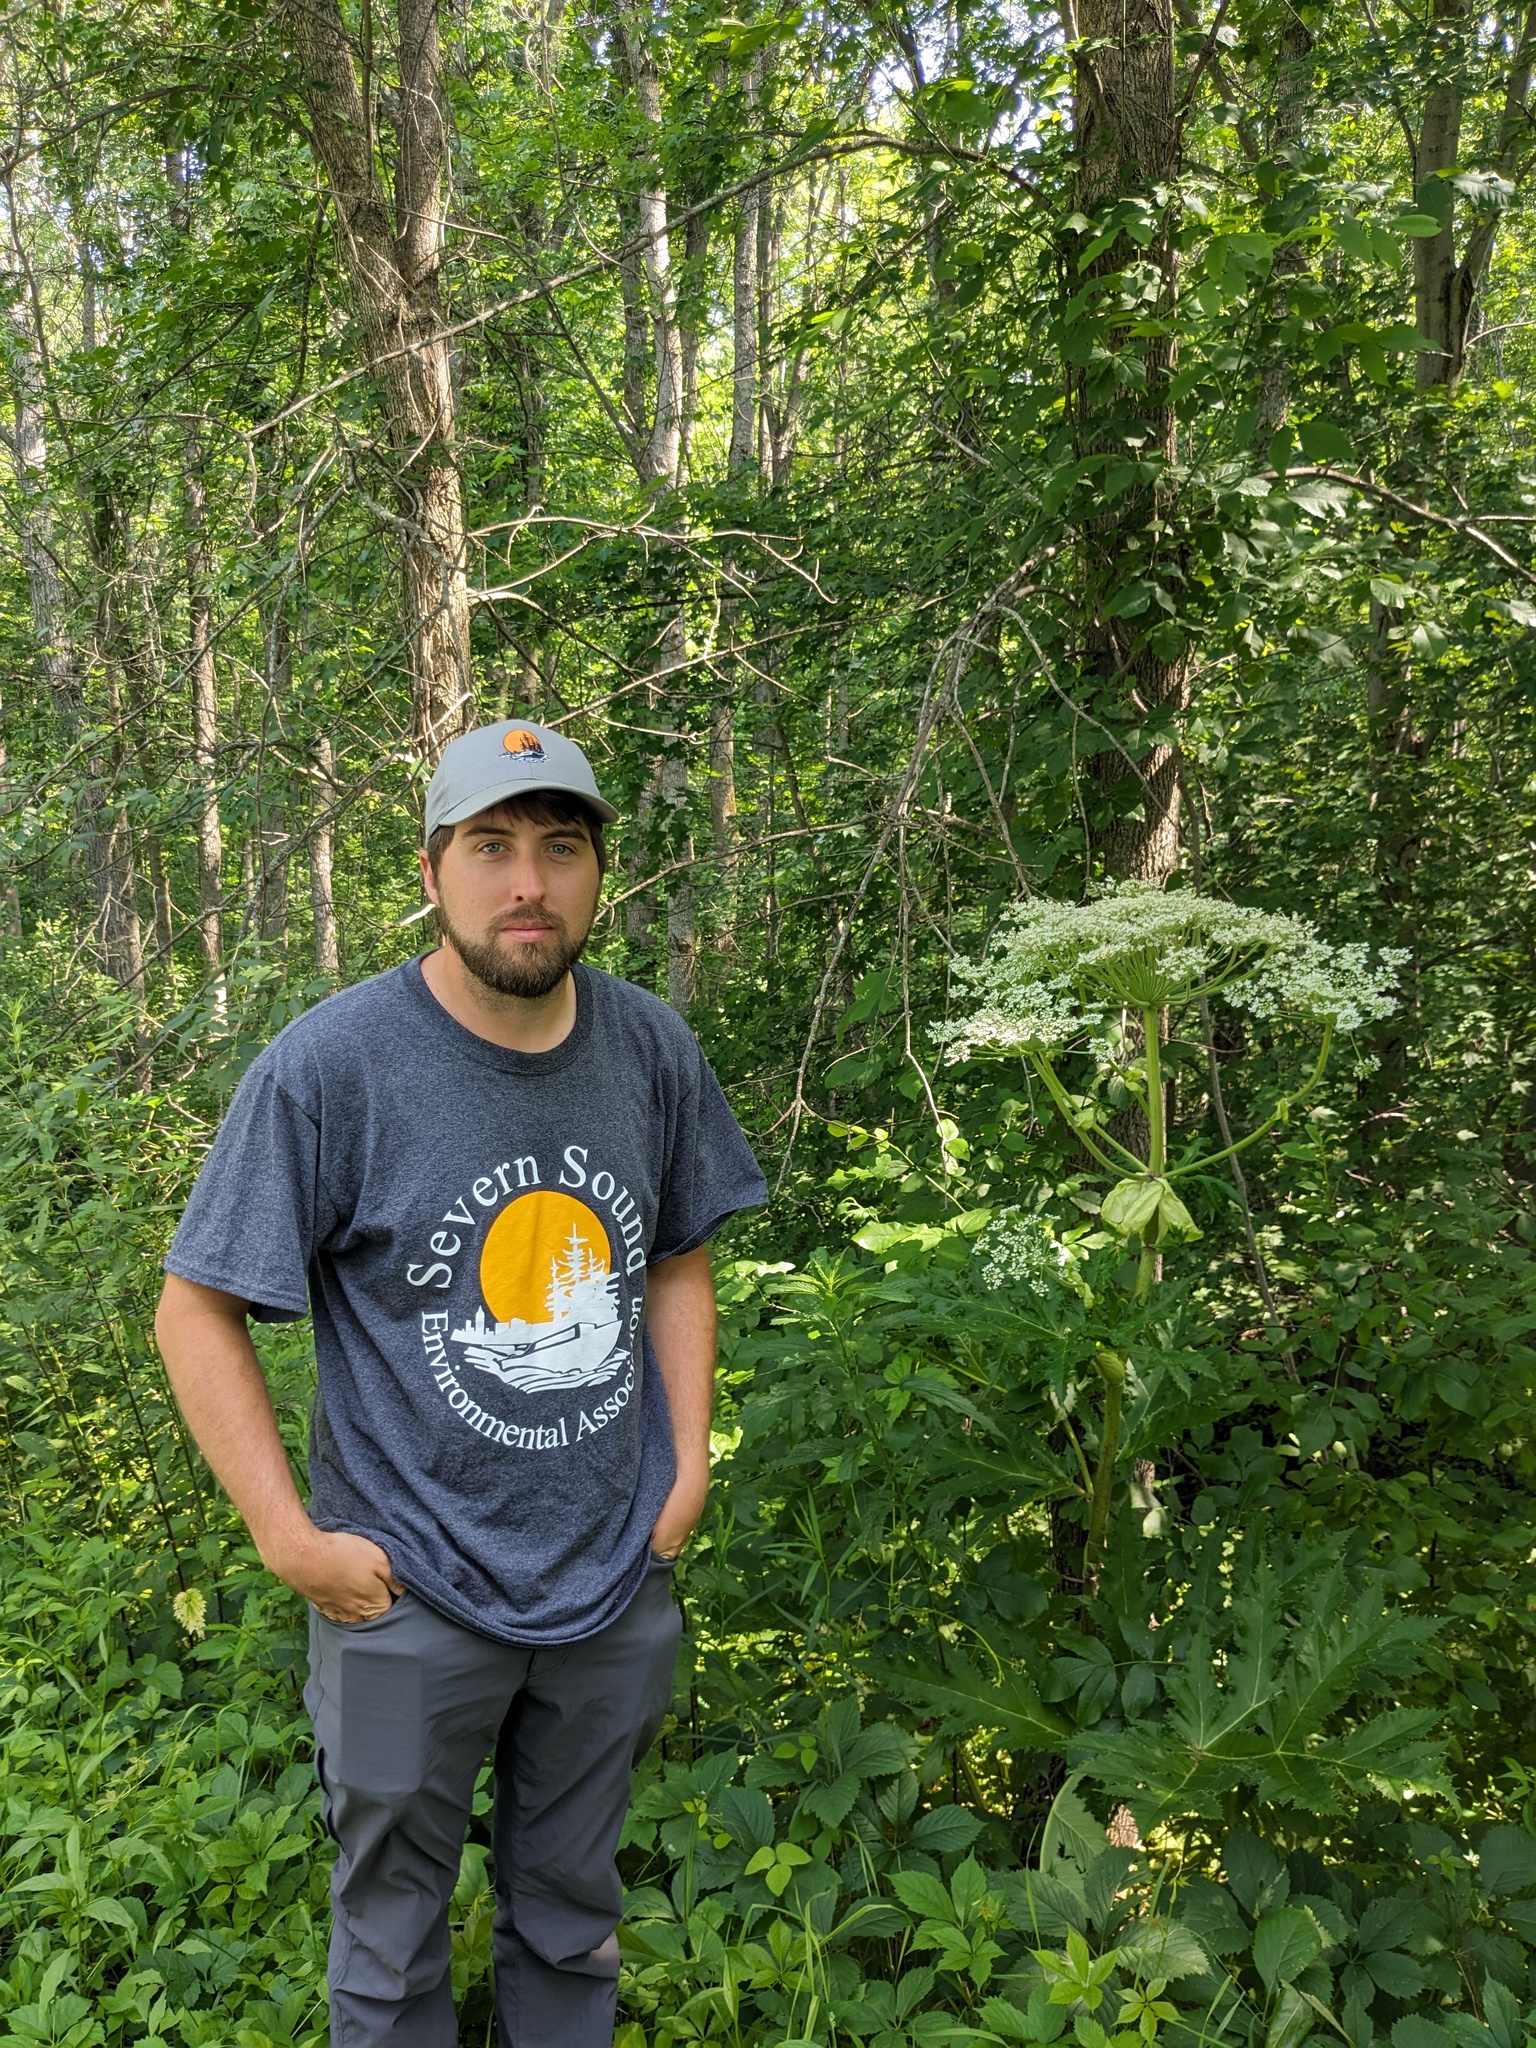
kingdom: Plantae
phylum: Tracheophyta
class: Magnoliopsida
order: Apiales
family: Apiaceae
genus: Heracleum
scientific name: Heracleum mantegazzianum
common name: Giant hogweed
